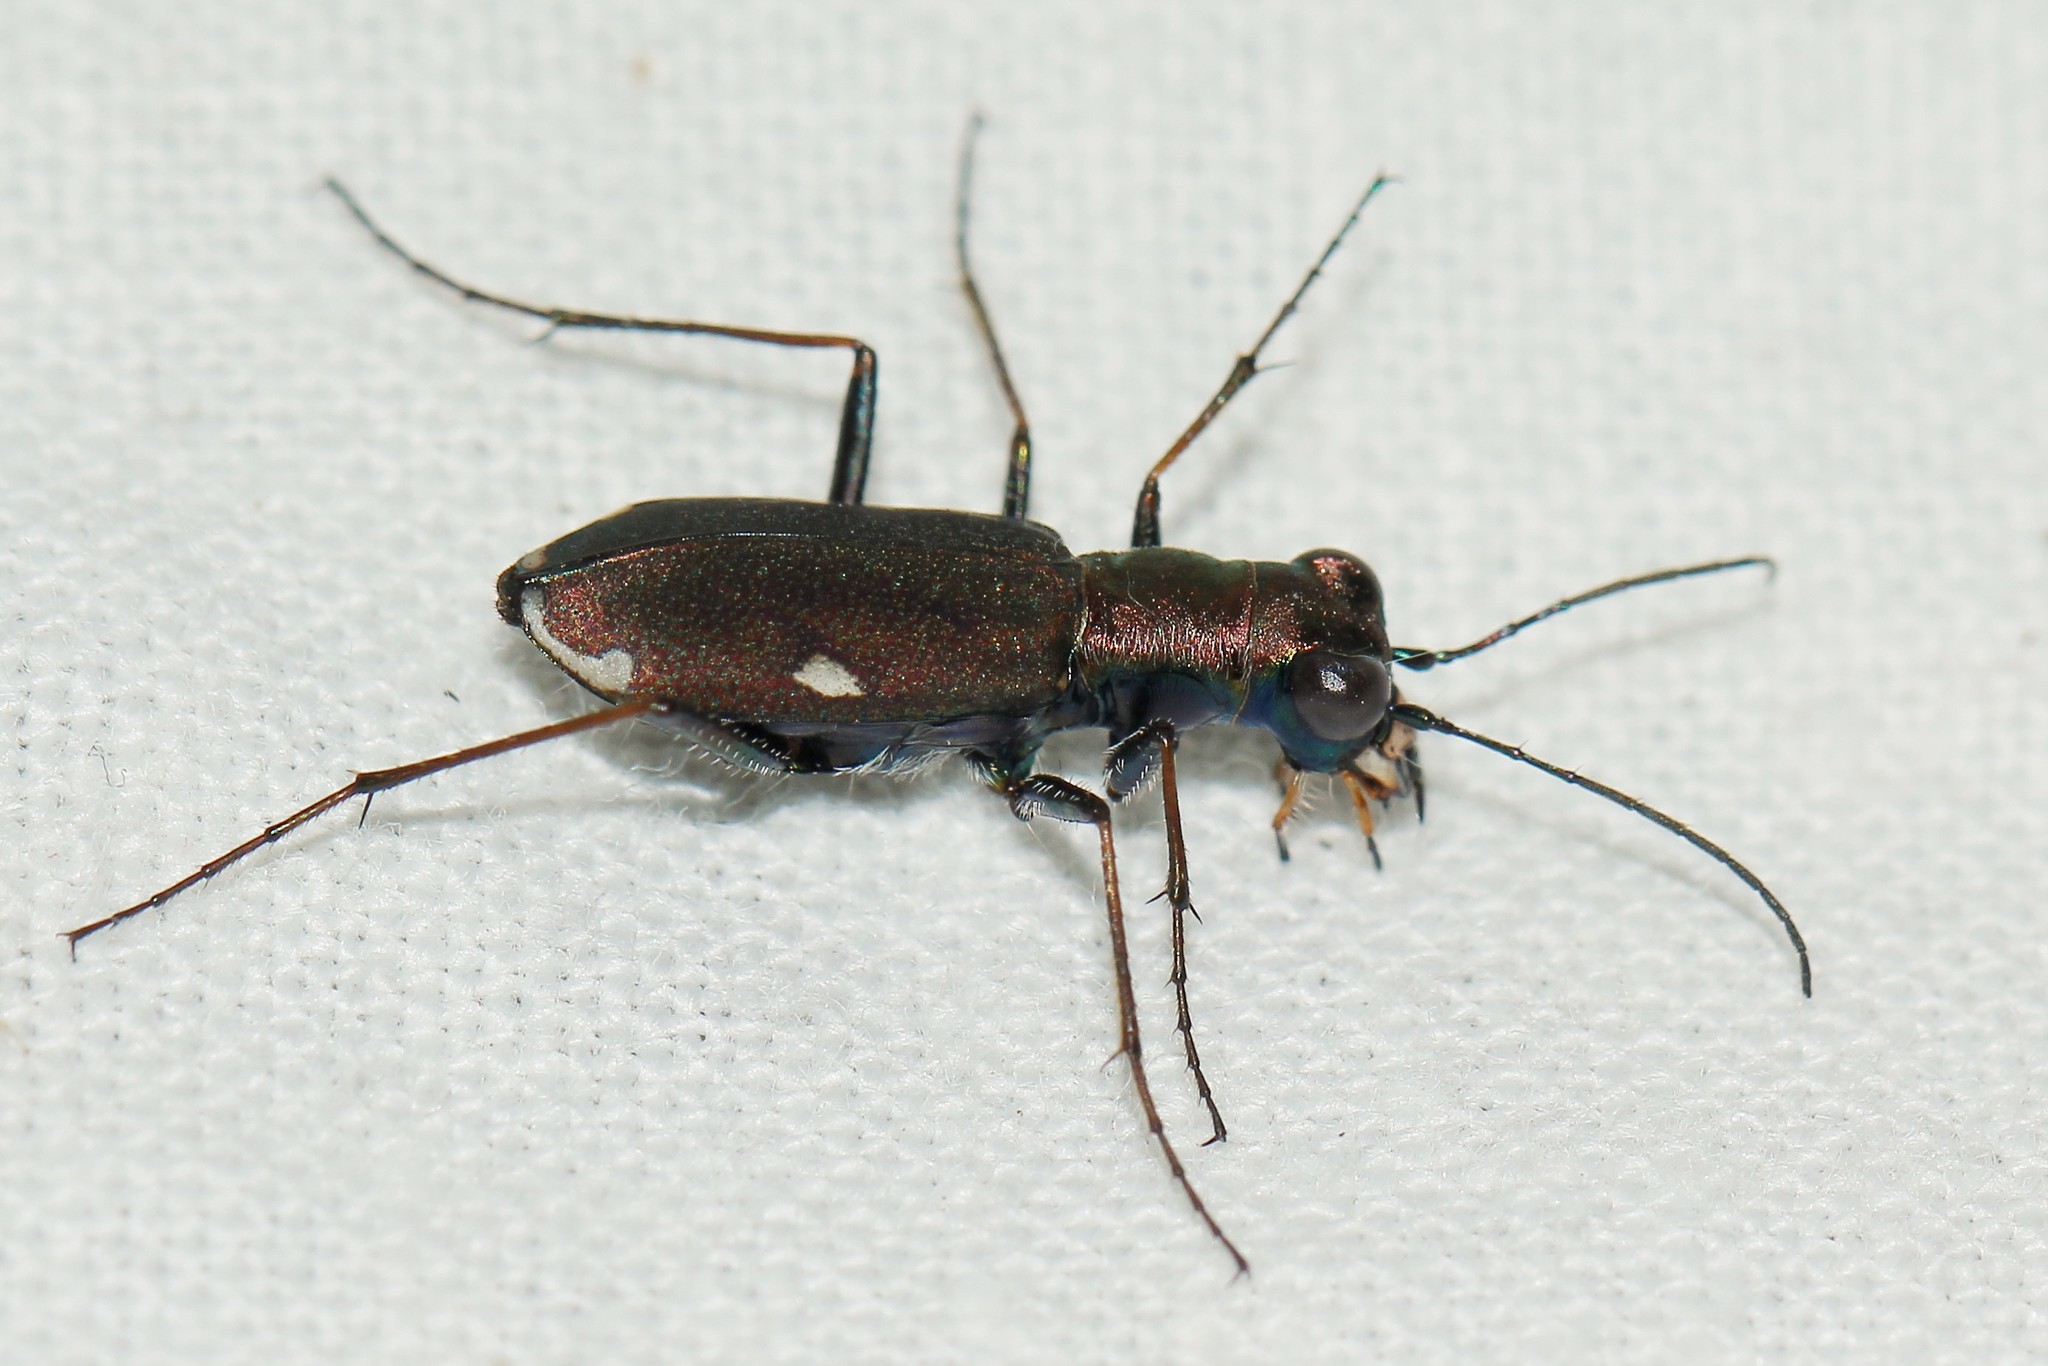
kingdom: Animalia
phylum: Arthropoda
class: Insecta
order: Coleoptera
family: Carabidae
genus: Cylindera
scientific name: Cylindera germanica
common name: Cliff tiger beetle
